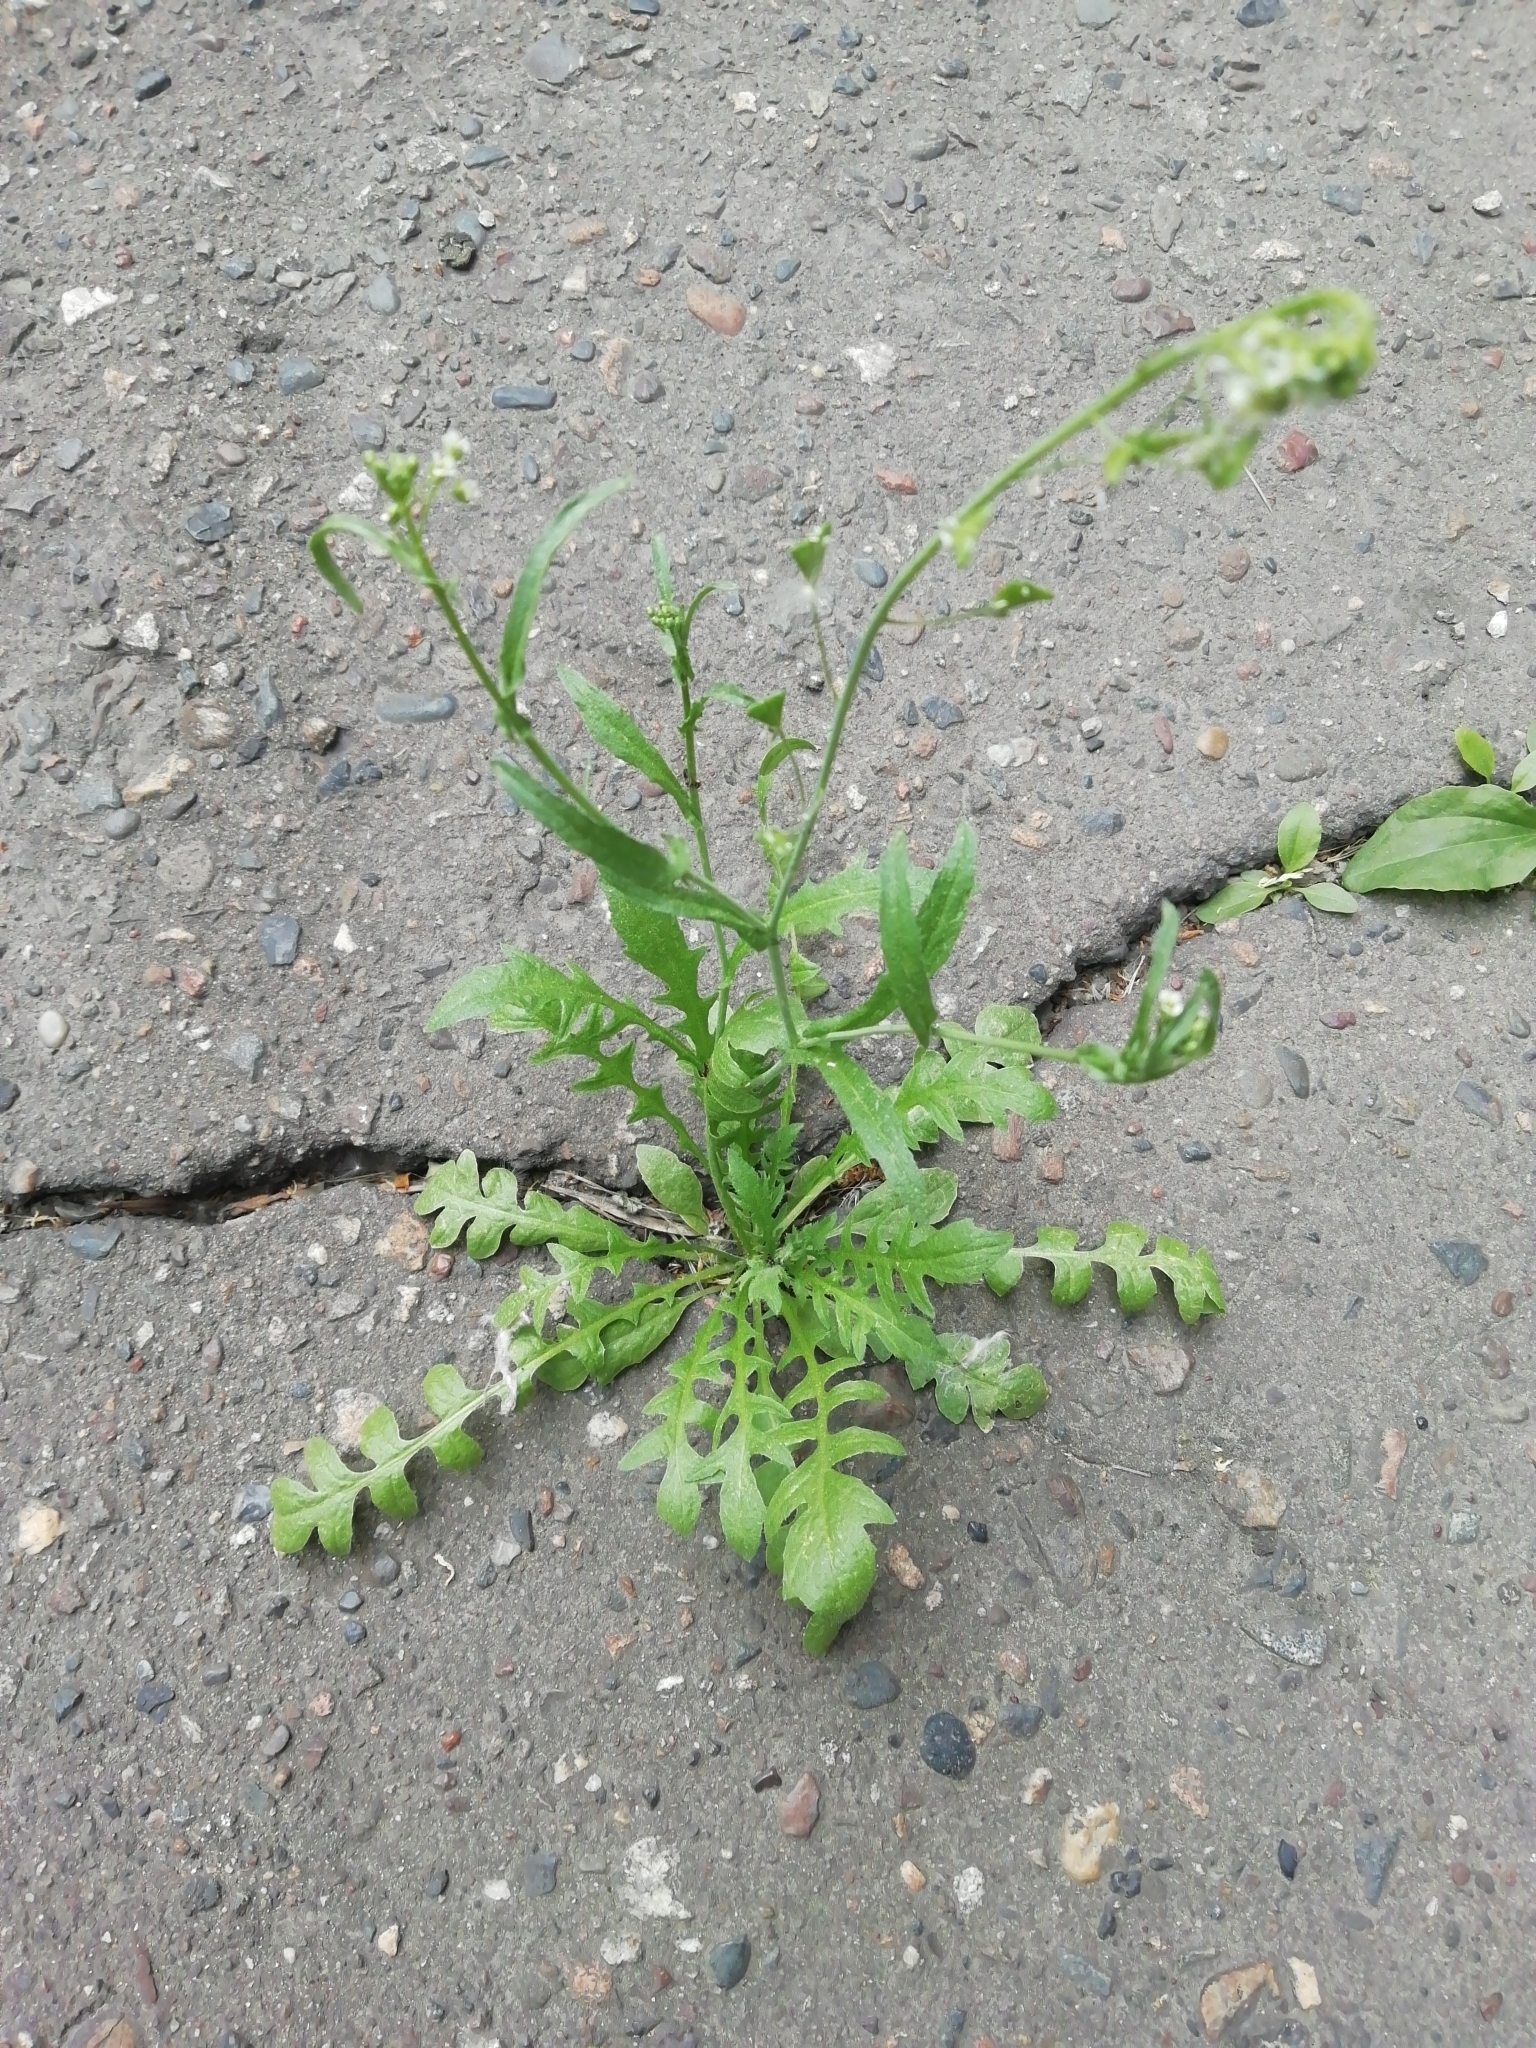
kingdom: Plantae
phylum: Tracheophyta
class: Magnoliopsida
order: Brassicales
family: Brassicaceae
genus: Capsella
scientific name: Capsella bursa-pastoris
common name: Shepherd's purse
